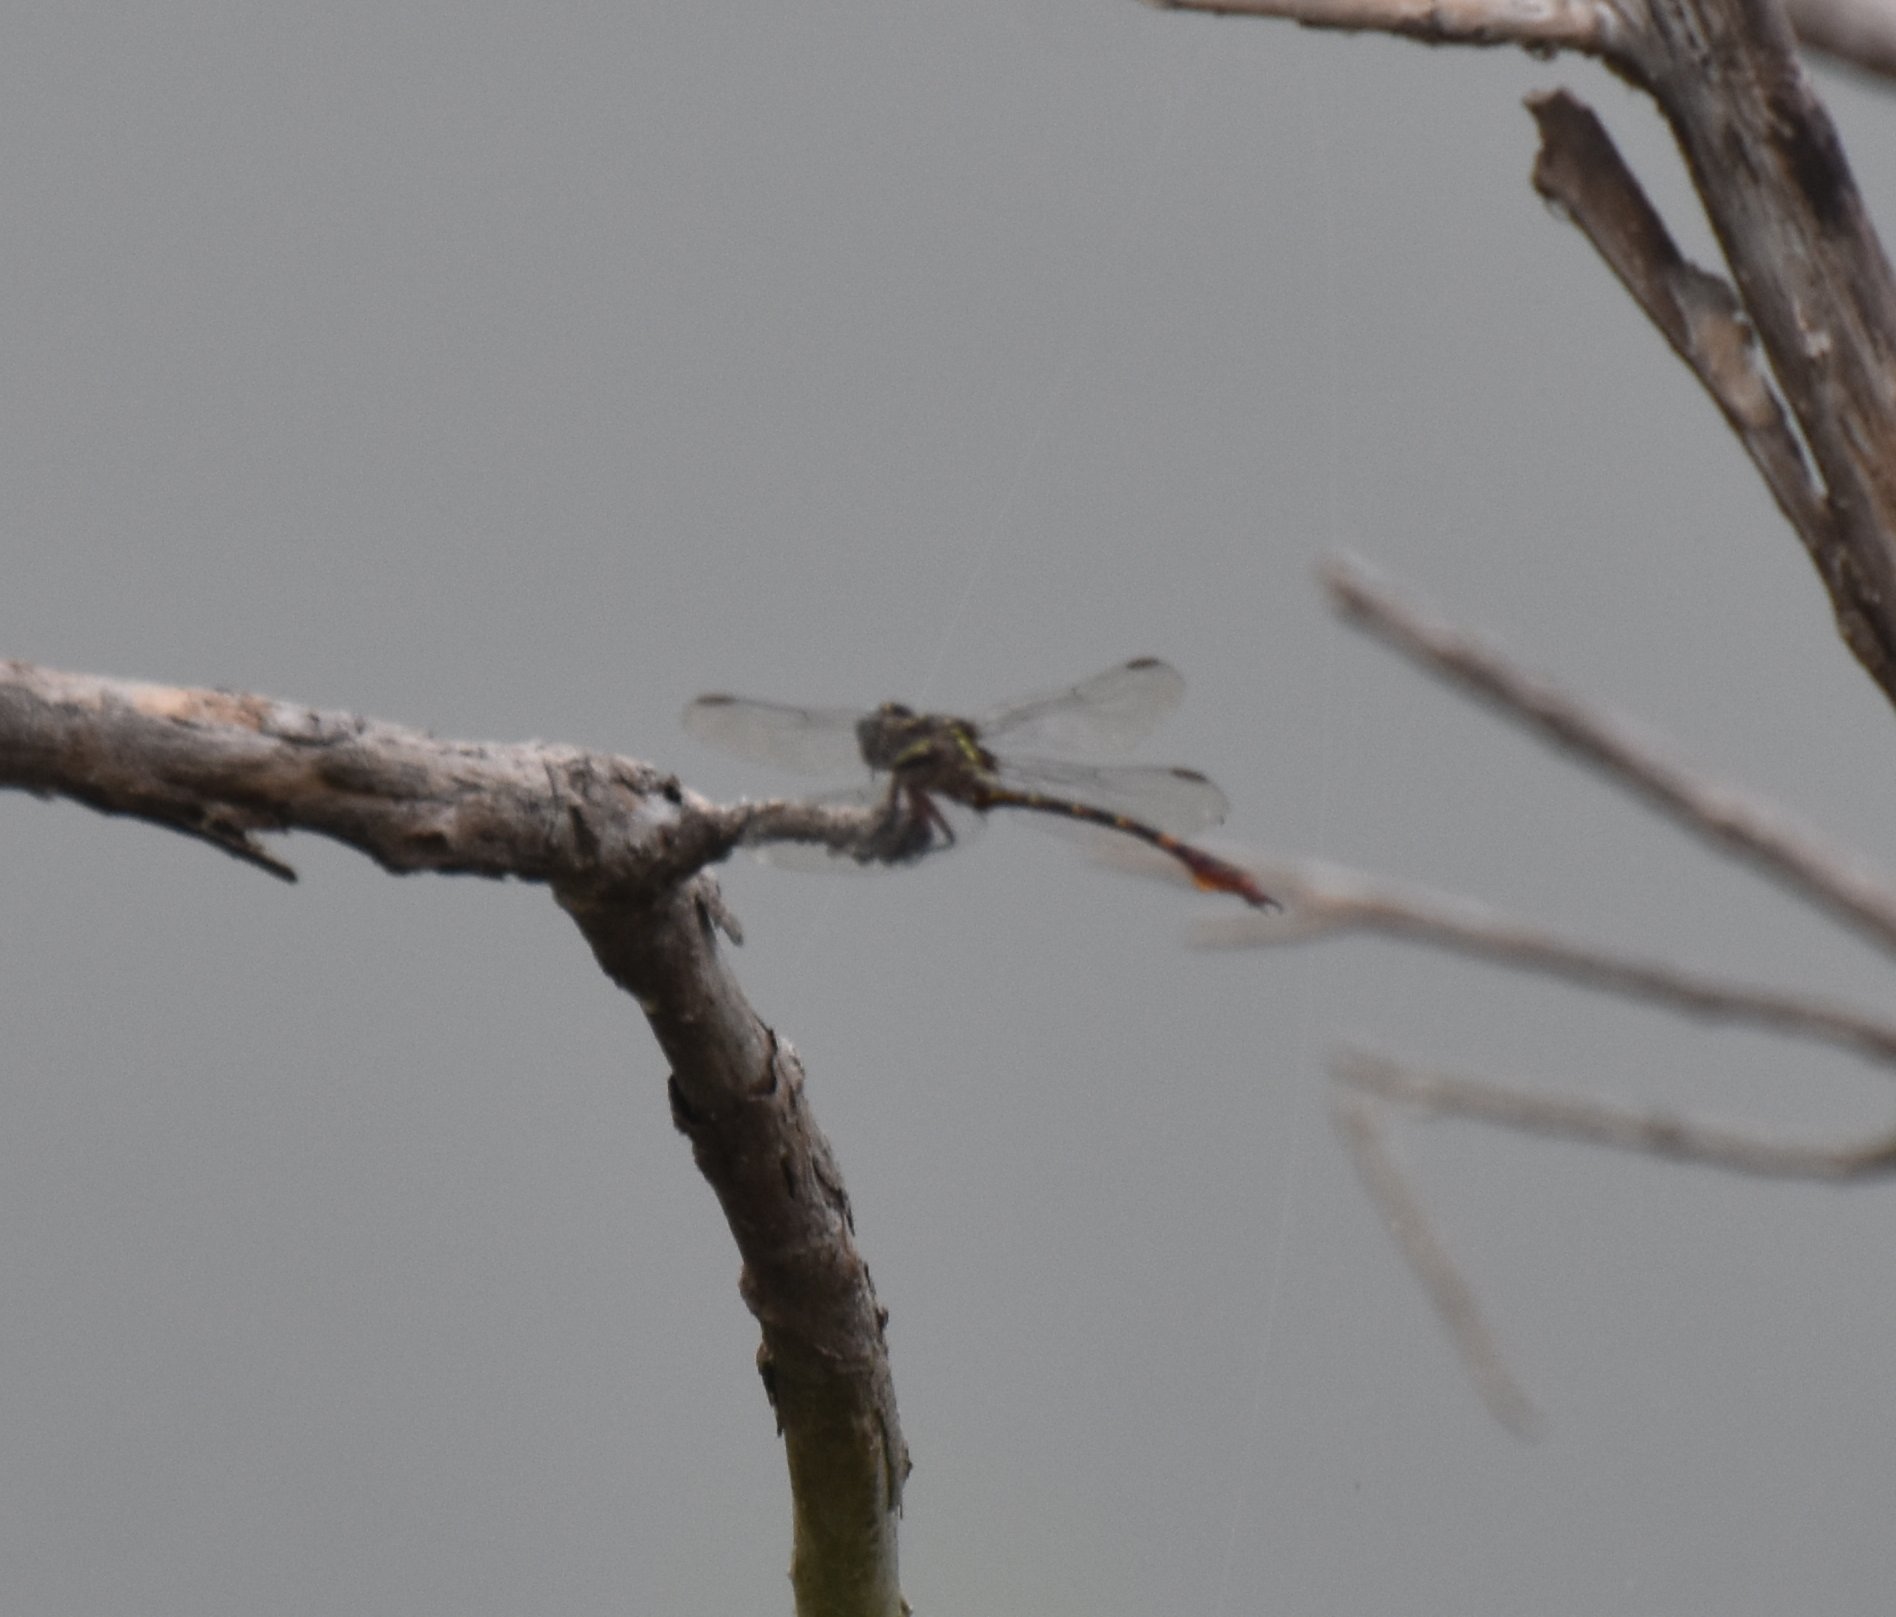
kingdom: Animalia
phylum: Arthropoda
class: Insecta
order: Odonata
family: Gomphidae
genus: Aphylla
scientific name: Aphylla williamsoni
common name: Two-striped forceptail
